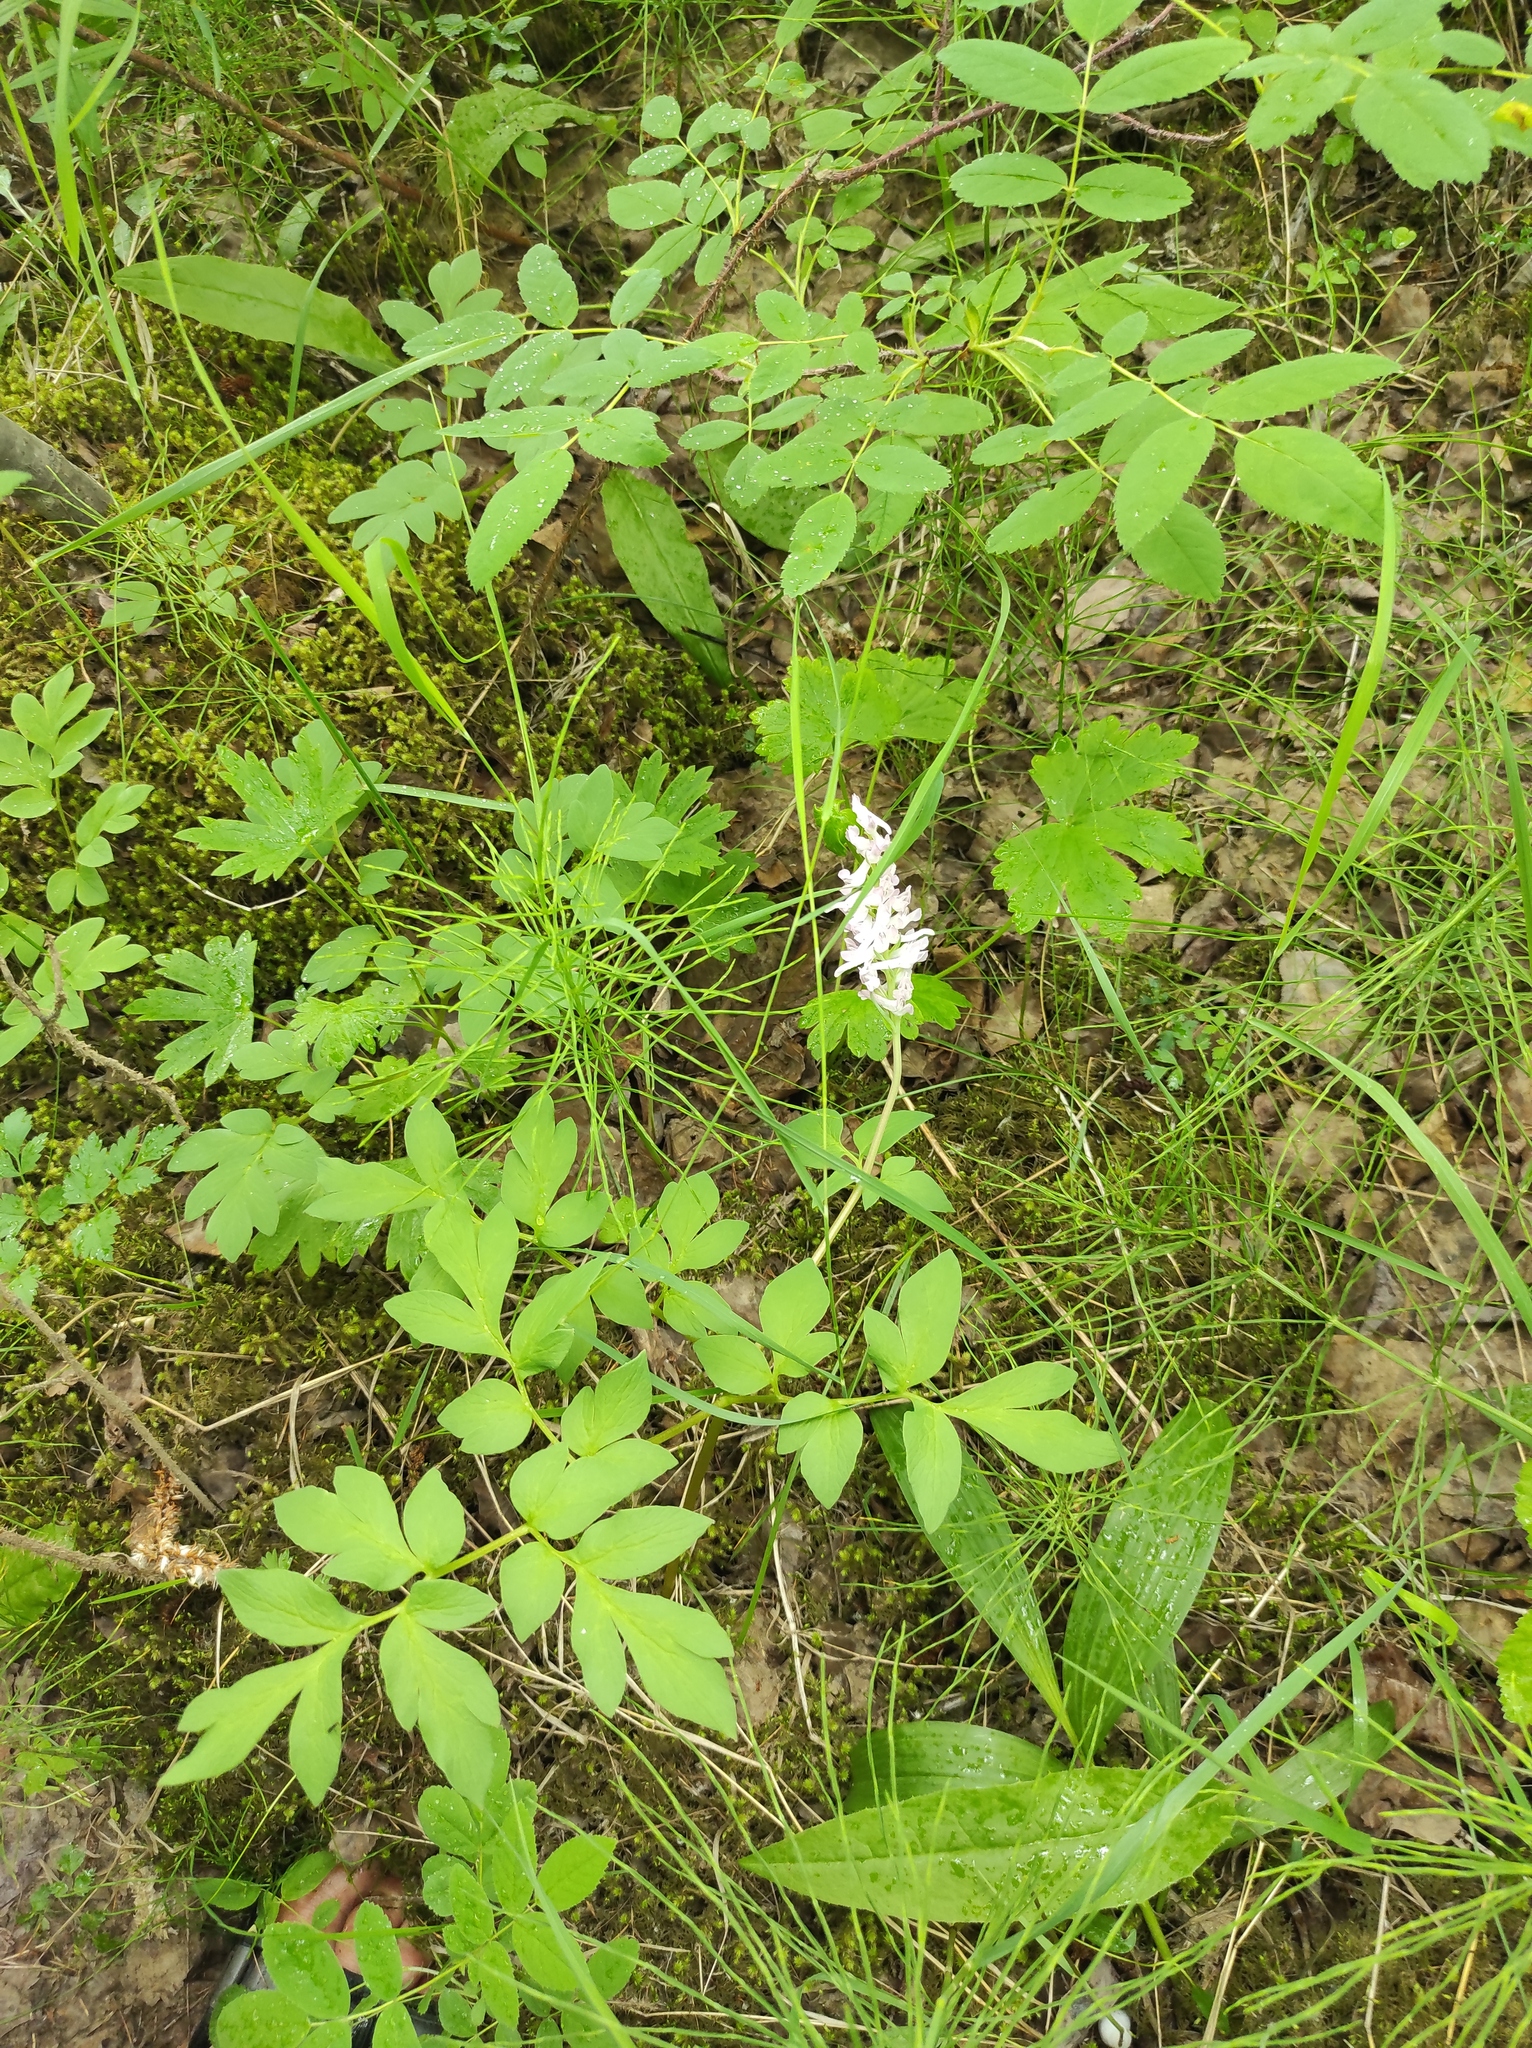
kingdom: Plantae
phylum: Tracheophyta
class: Magnoliopsida
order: Ranunculales
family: Papaveraceae
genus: Corydalis
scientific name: Corydalis paeoniifolia
